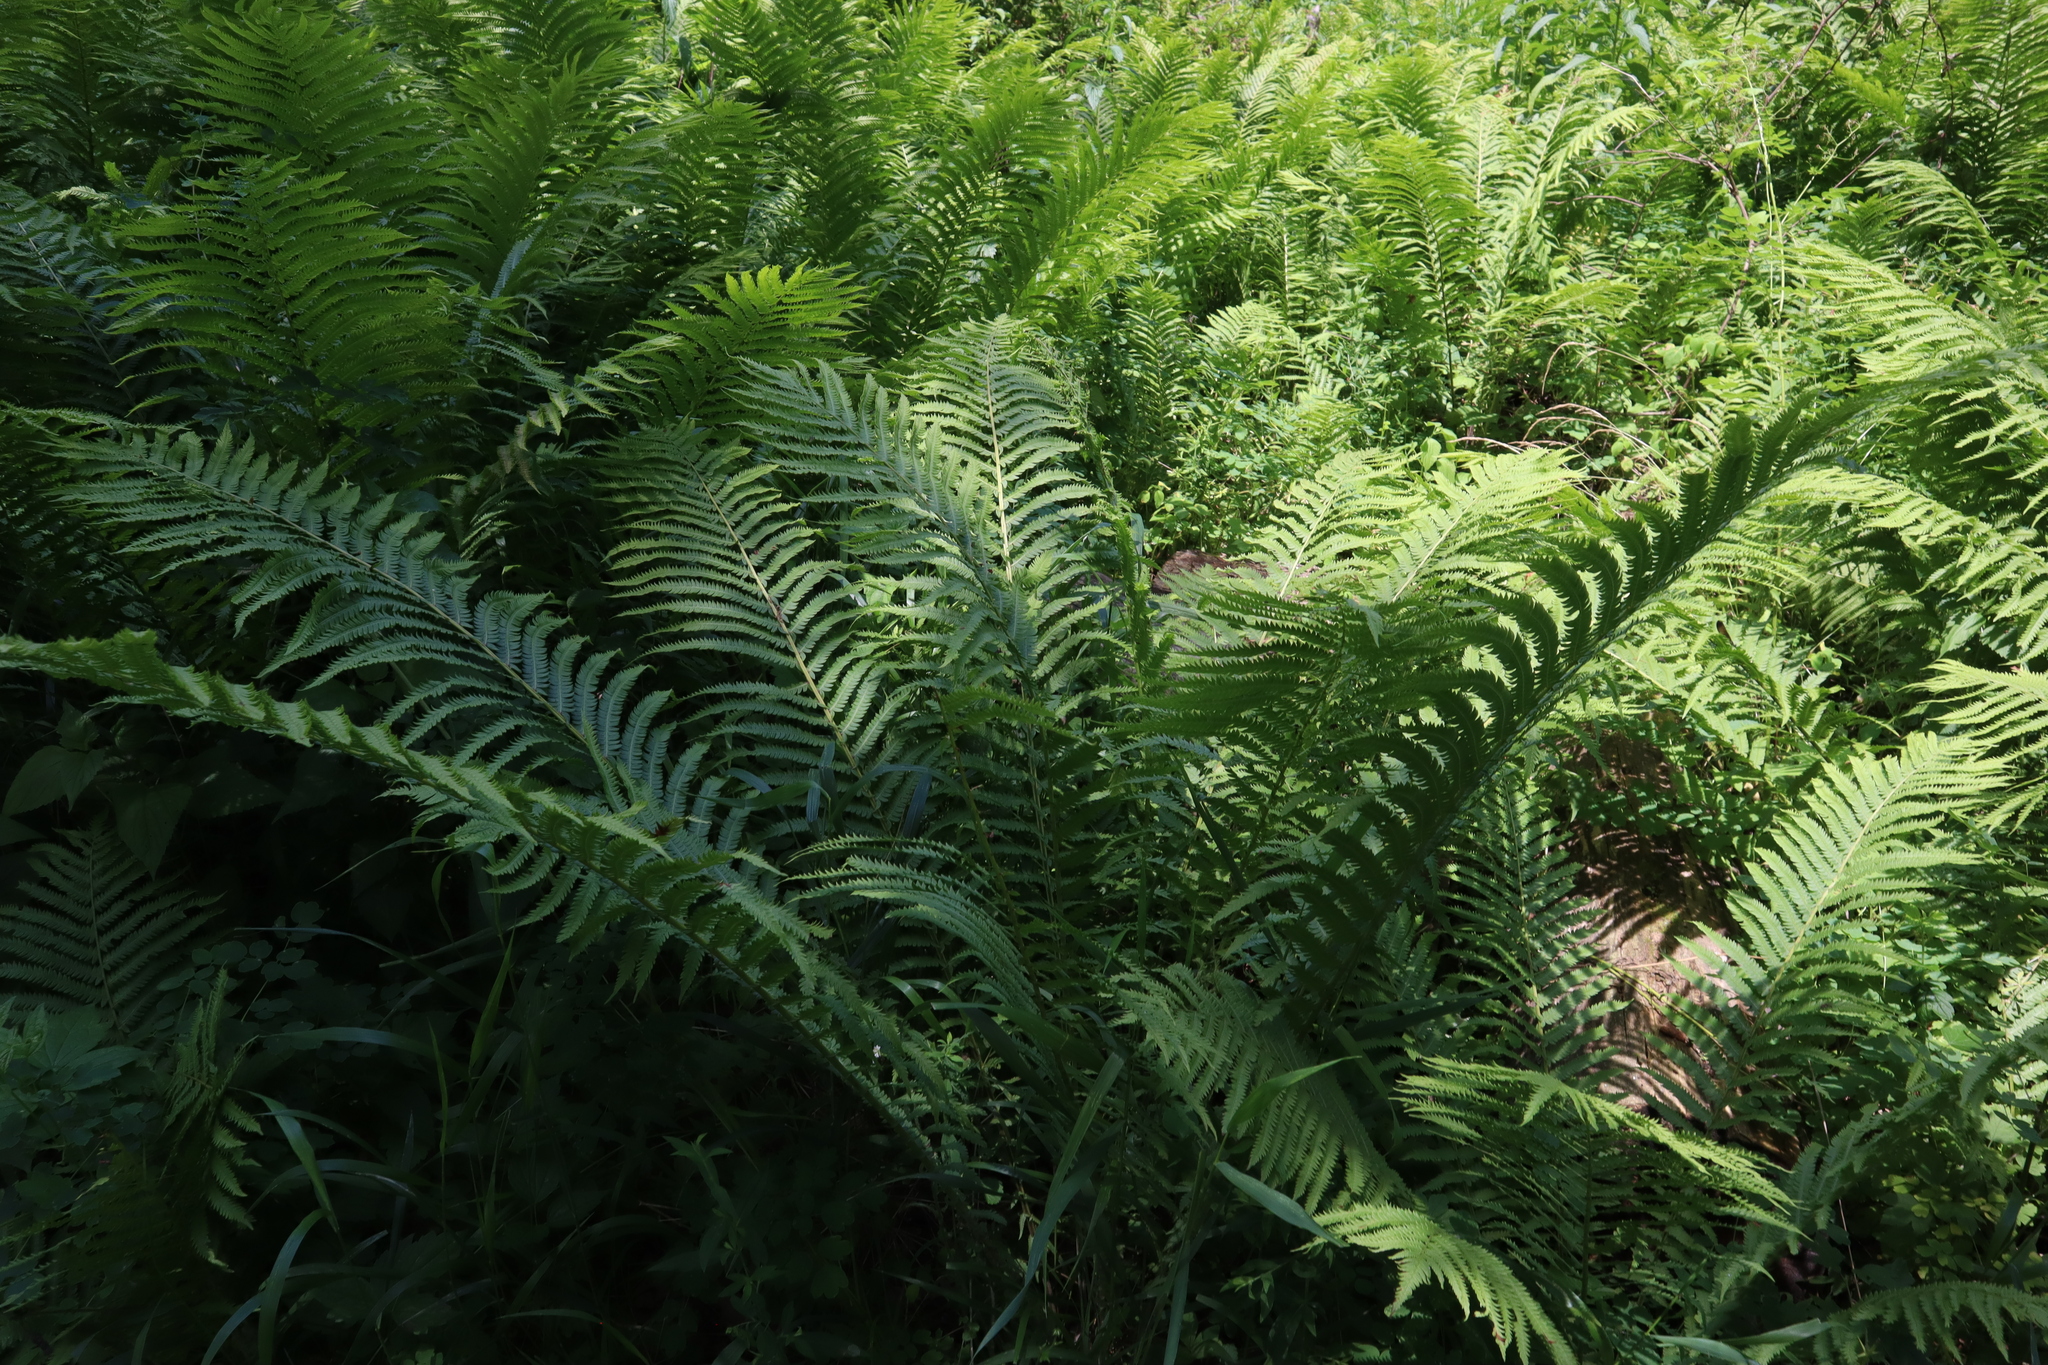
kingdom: Plantae
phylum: Tracheophyta
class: Polypodiopsida
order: Polypodiales
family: Onocleaceae
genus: Matteuccia
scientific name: Matteuccia struthiopteris
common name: Ostrich fern
